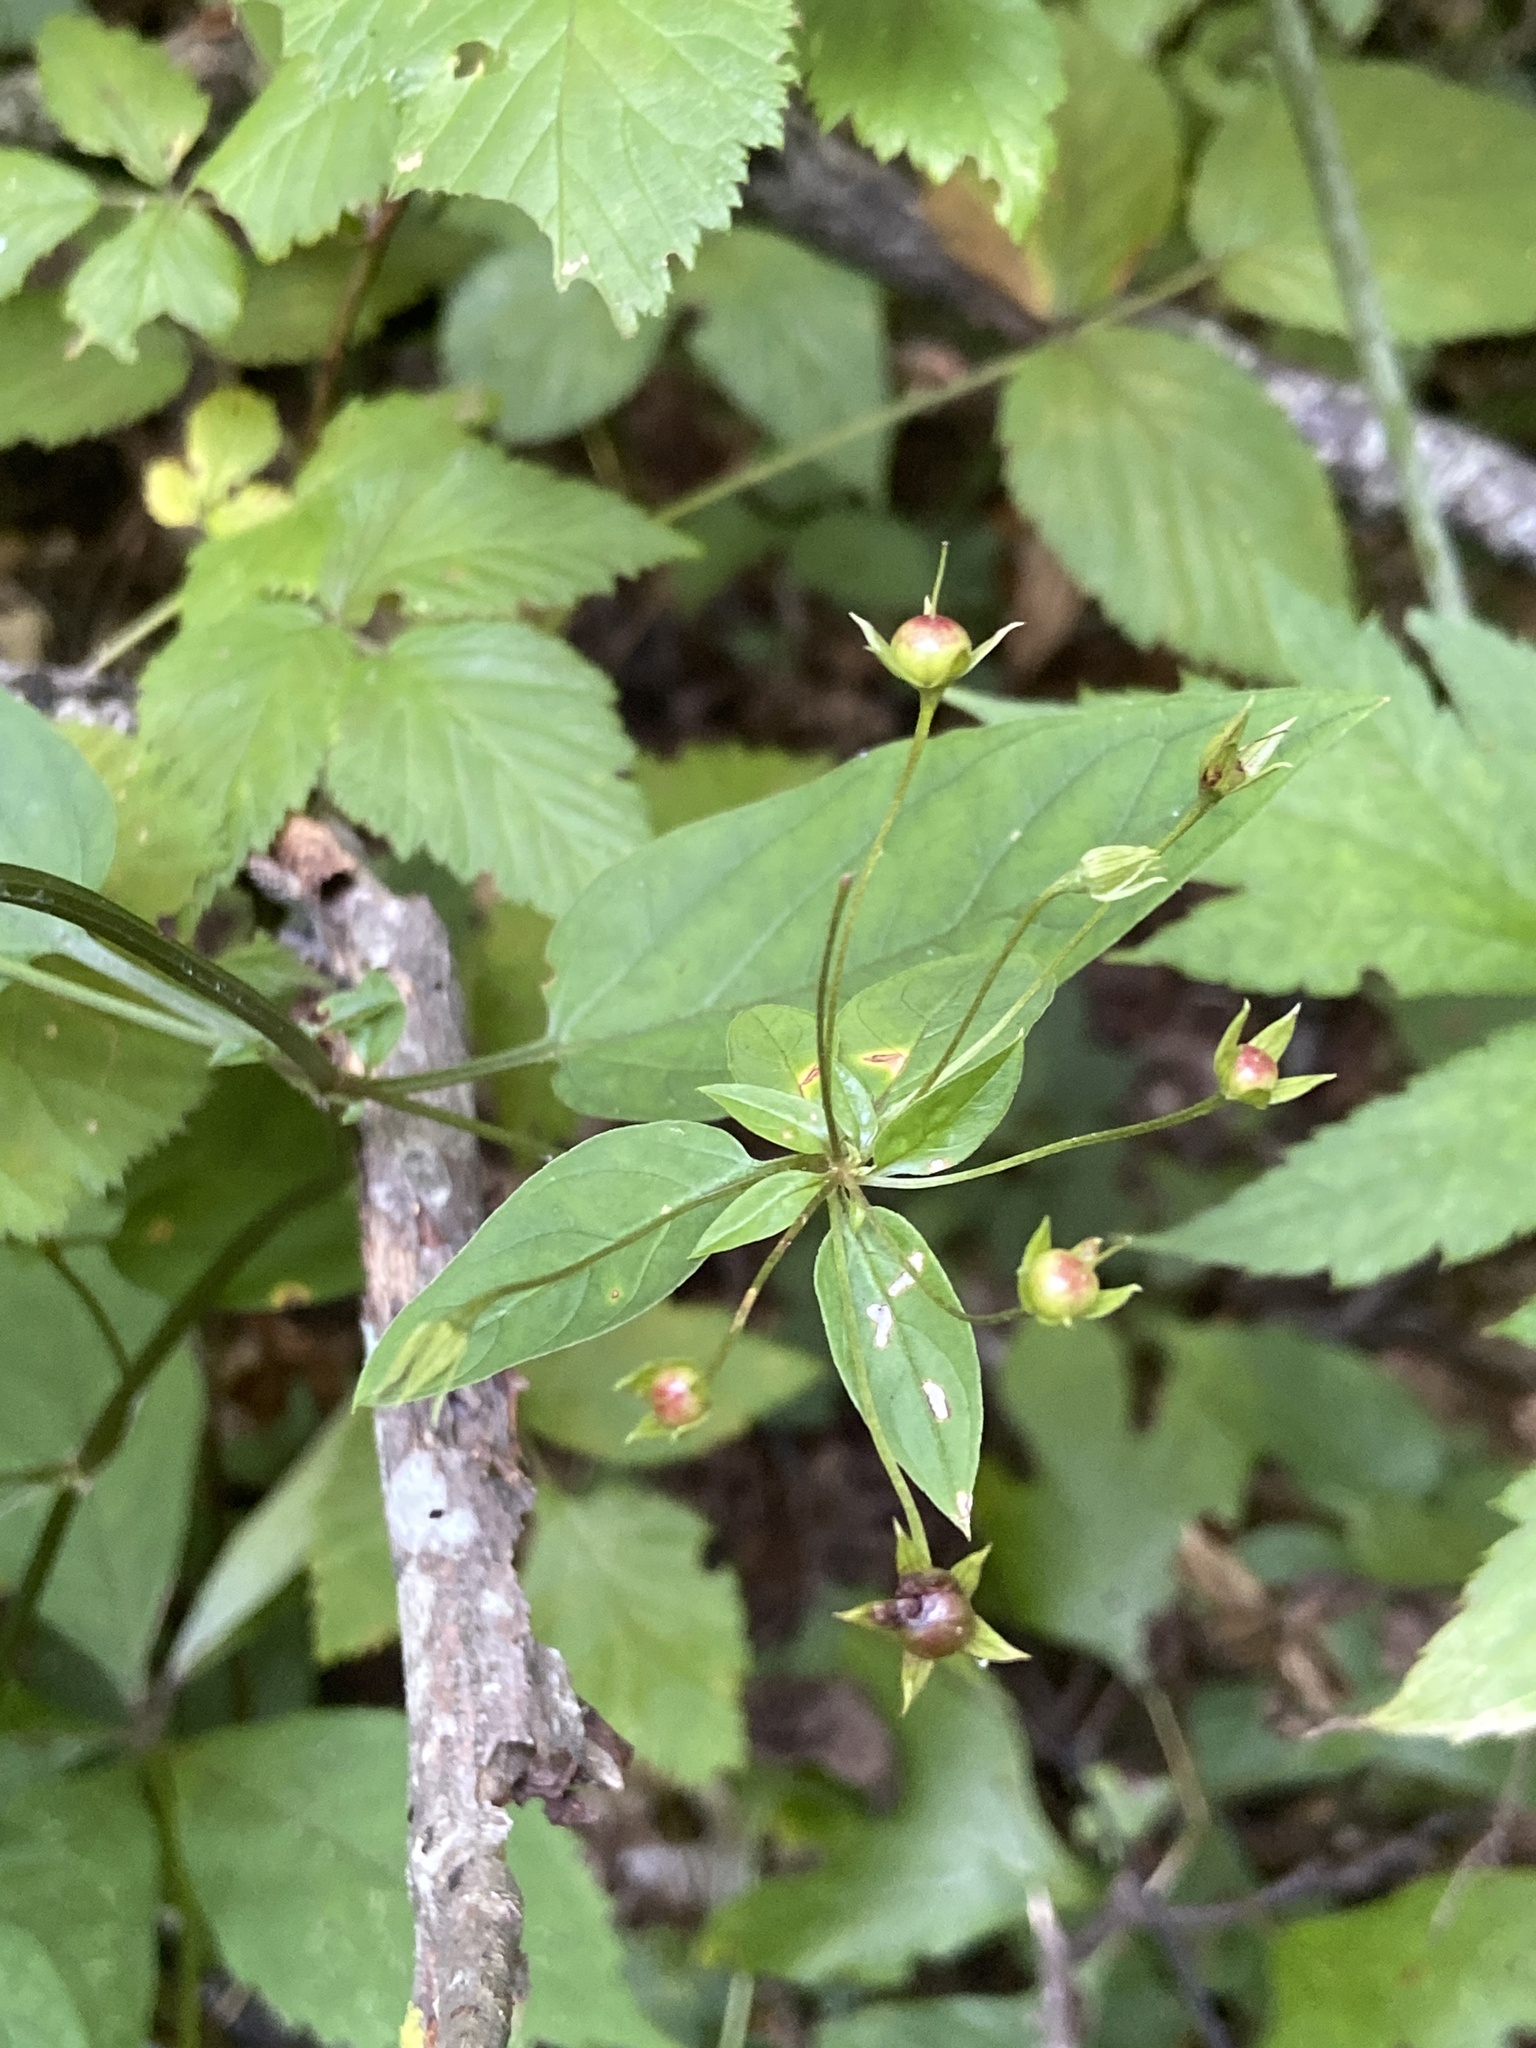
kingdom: Plantae
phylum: Tracheophyta
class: Magnoliopsida
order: Ericales
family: Primulaceae
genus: Lysimachia
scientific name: Lysimachia tonsa
